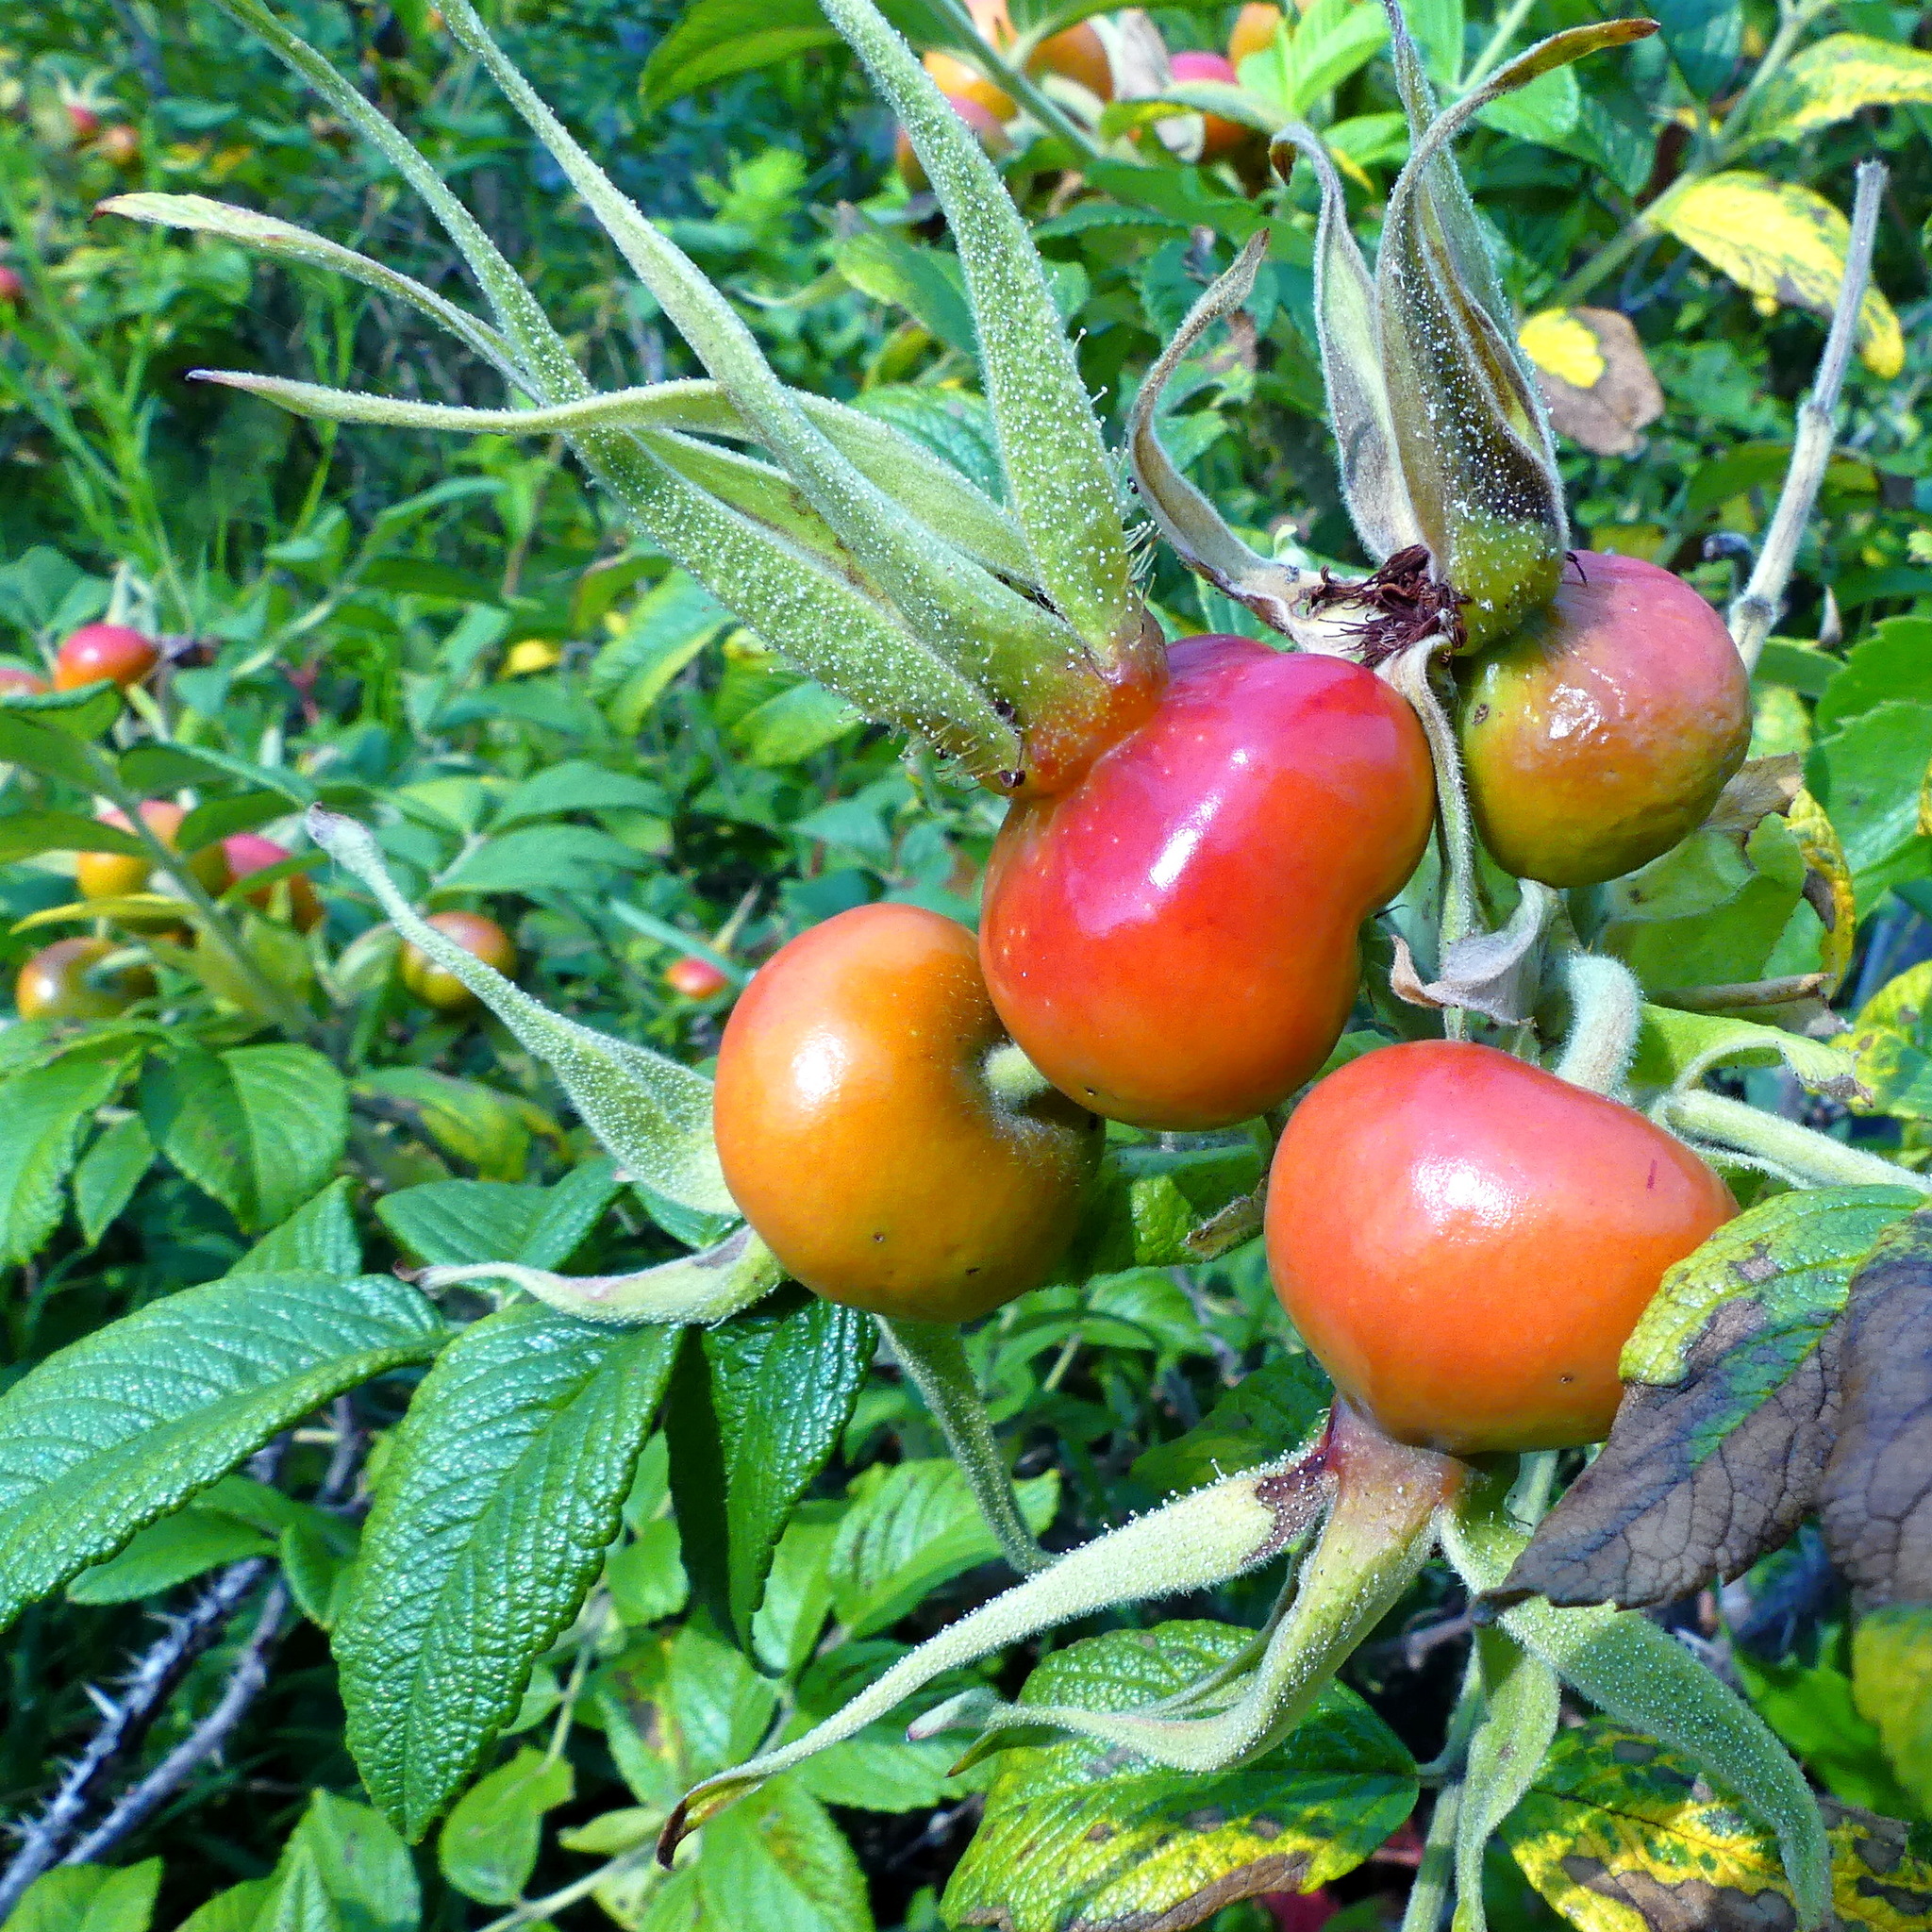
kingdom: Plantae
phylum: Tracheophyta
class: Magnoliopsida
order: Rosales
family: Rosaceae
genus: Rosa
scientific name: Rosa rugosa
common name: Japanese rose
